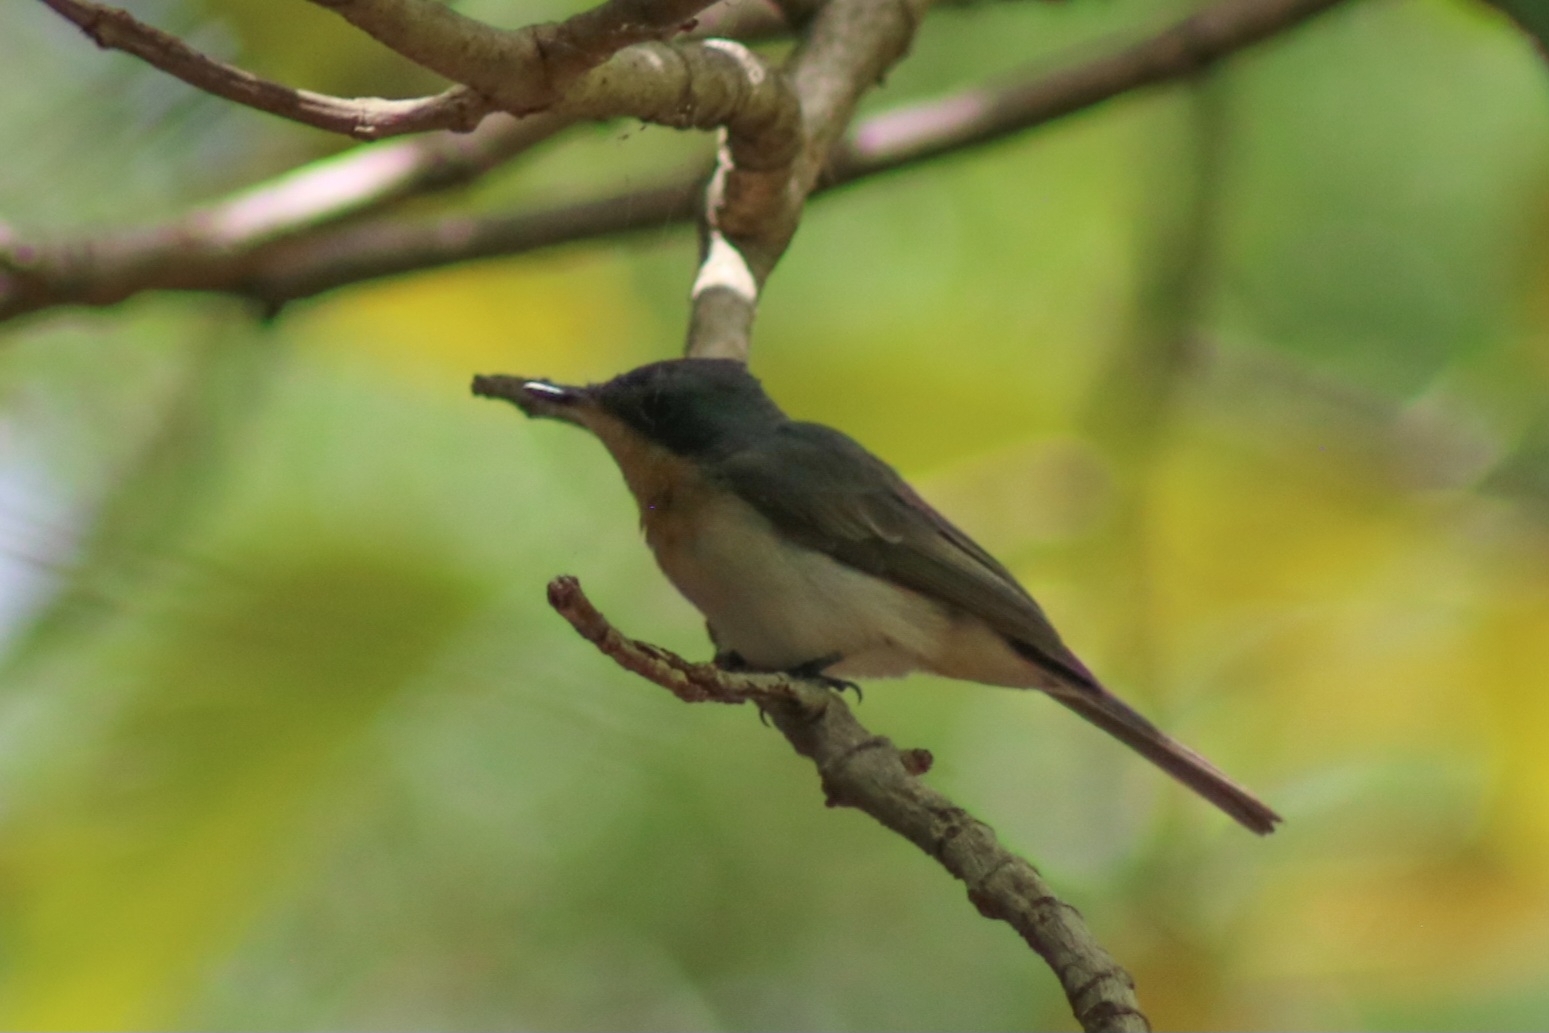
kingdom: Animalia
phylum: Chordata
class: Aves
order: Passeriformes
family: Monarchidae
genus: Myiagra
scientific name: Myiagra rubecula
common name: Leaden flycatcher
